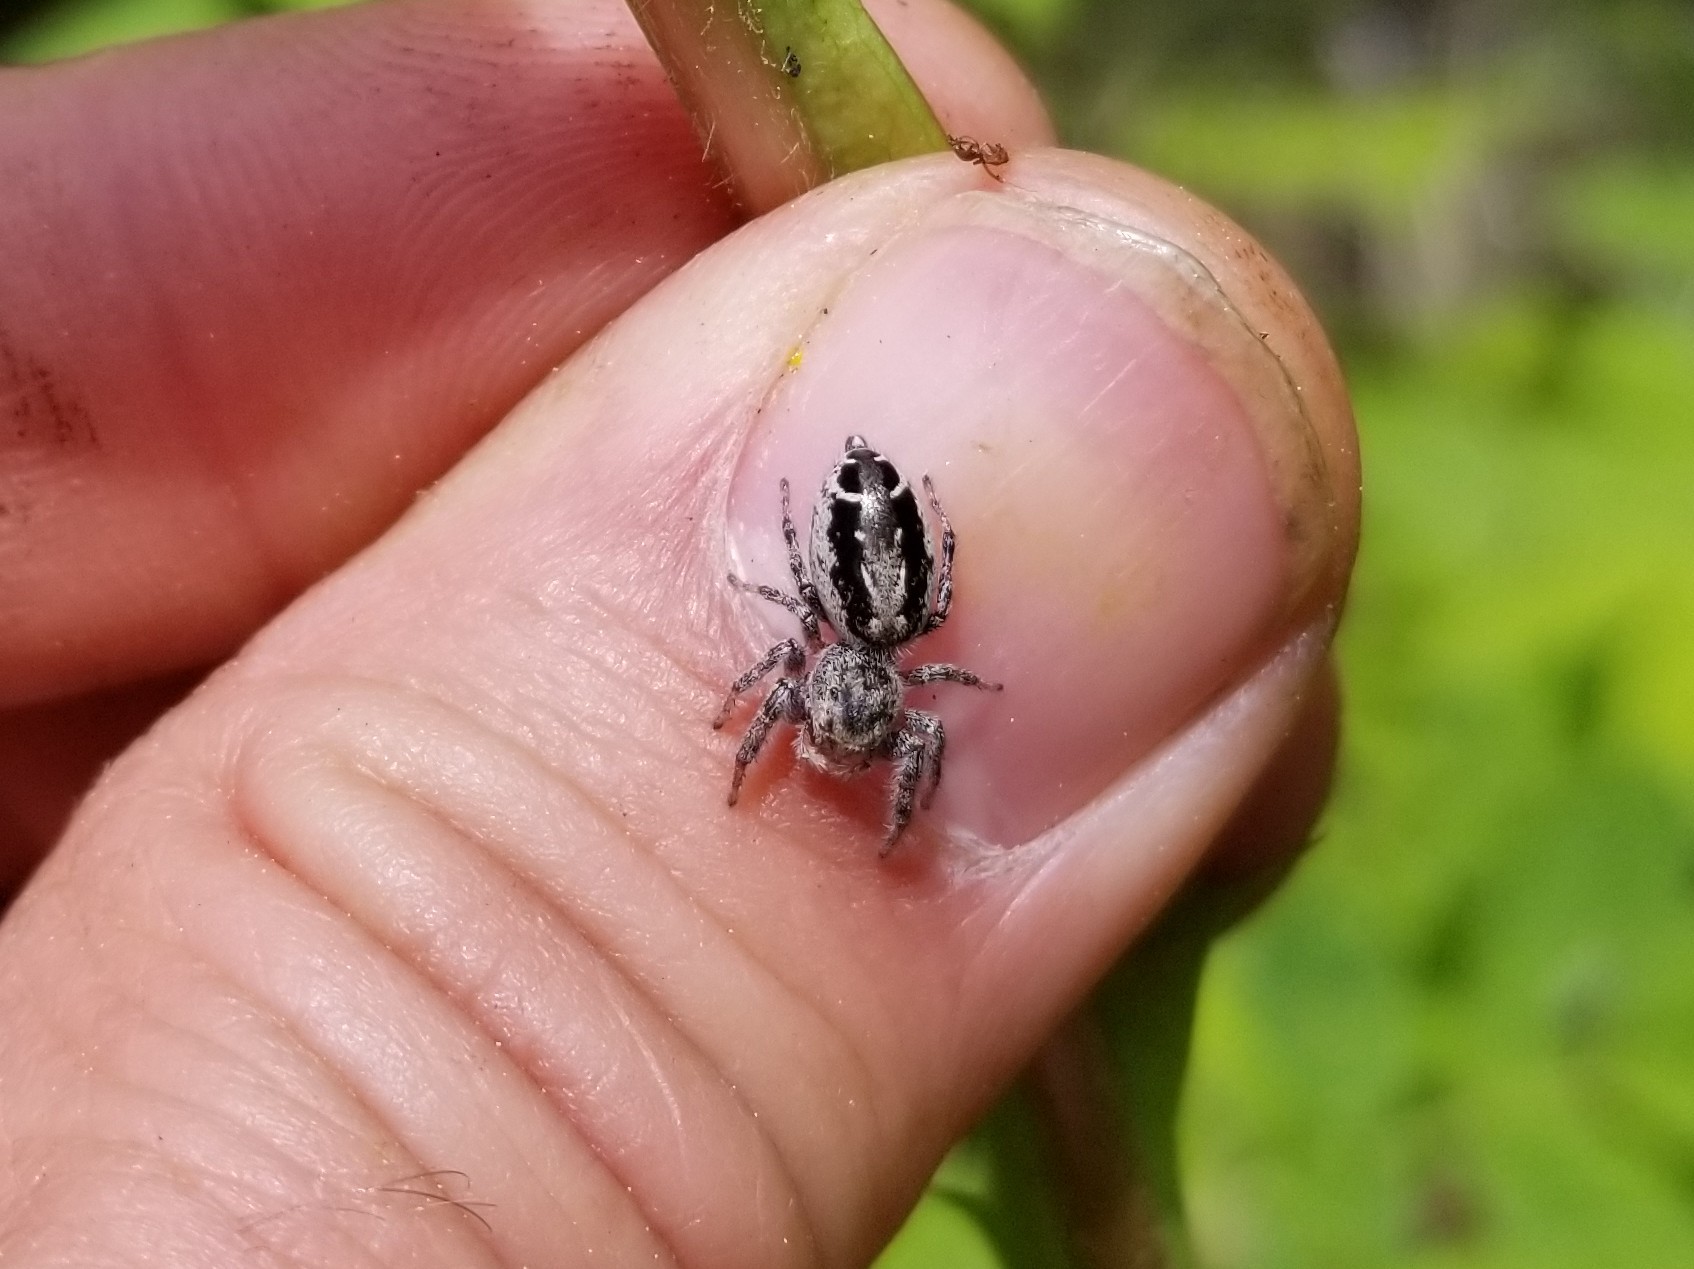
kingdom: Animalia
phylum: Arthropoda
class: Arachnida
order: Araneae
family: Salticidae
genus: Pelegrina
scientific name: Pelegrina montana
